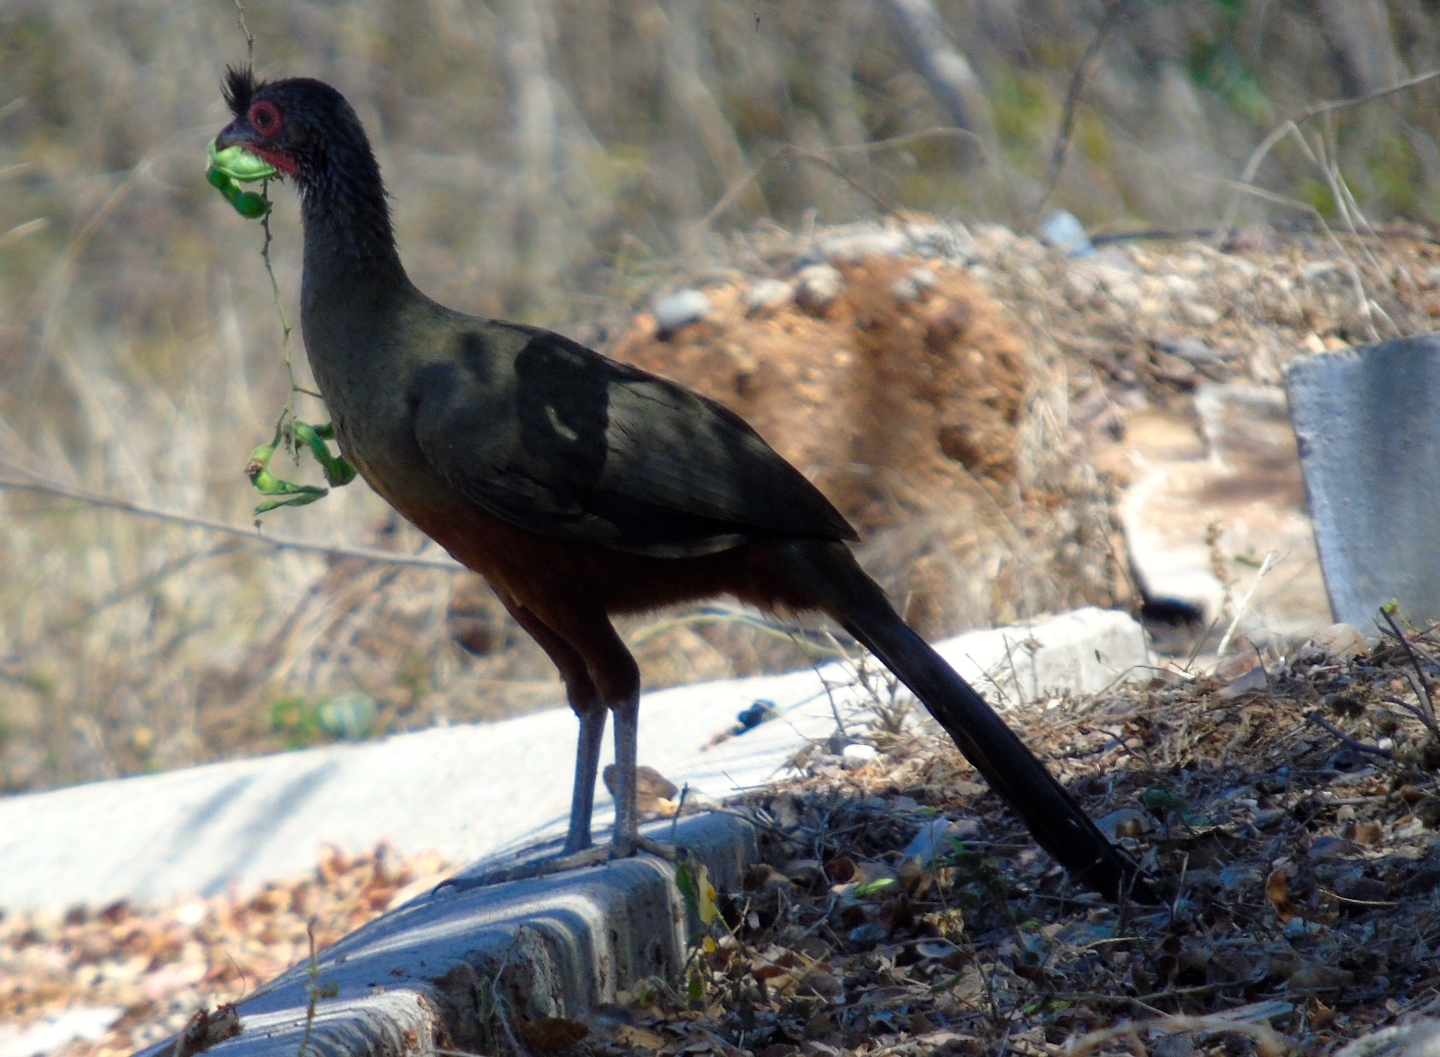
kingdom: Animalia
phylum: Chordata
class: Aves
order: Galliformes
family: Cracidae
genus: Ortalis
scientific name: Ortalis wagleri
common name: Rufous-bellied chachalaca
